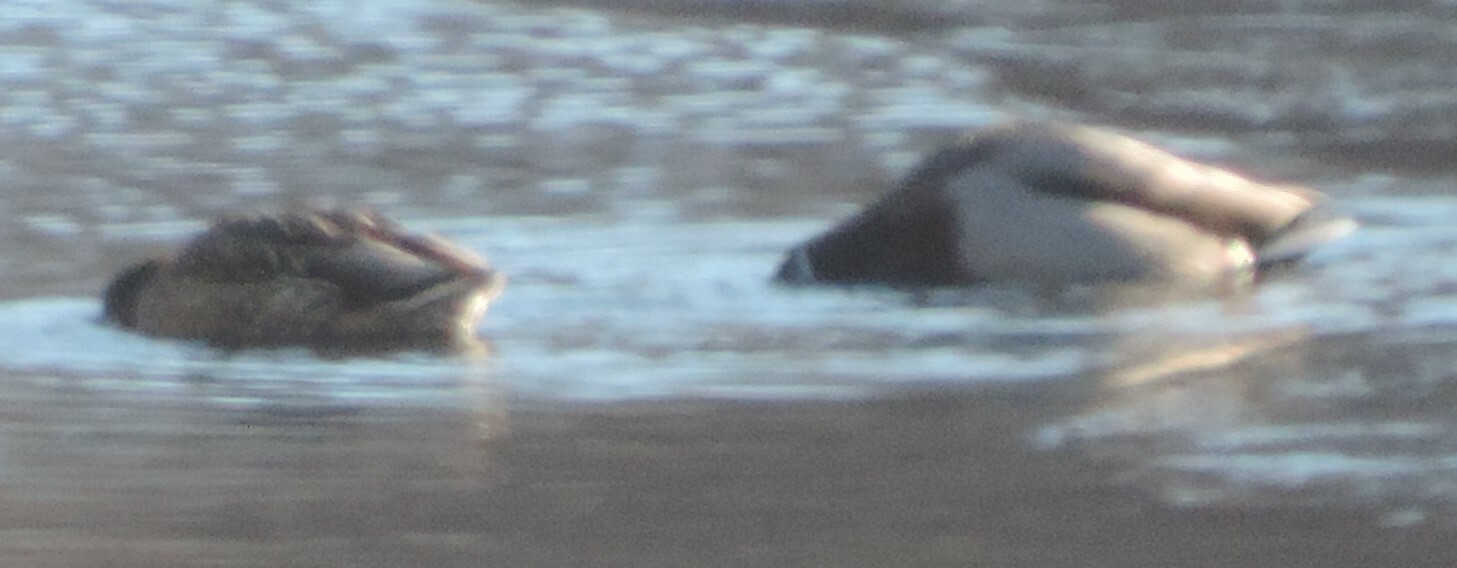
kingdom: Animalia
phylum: Chordata
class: Aves
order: Anseriformes
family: Anatidae
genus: Anas
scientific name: Anas platyrhynchos
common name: Mallard
